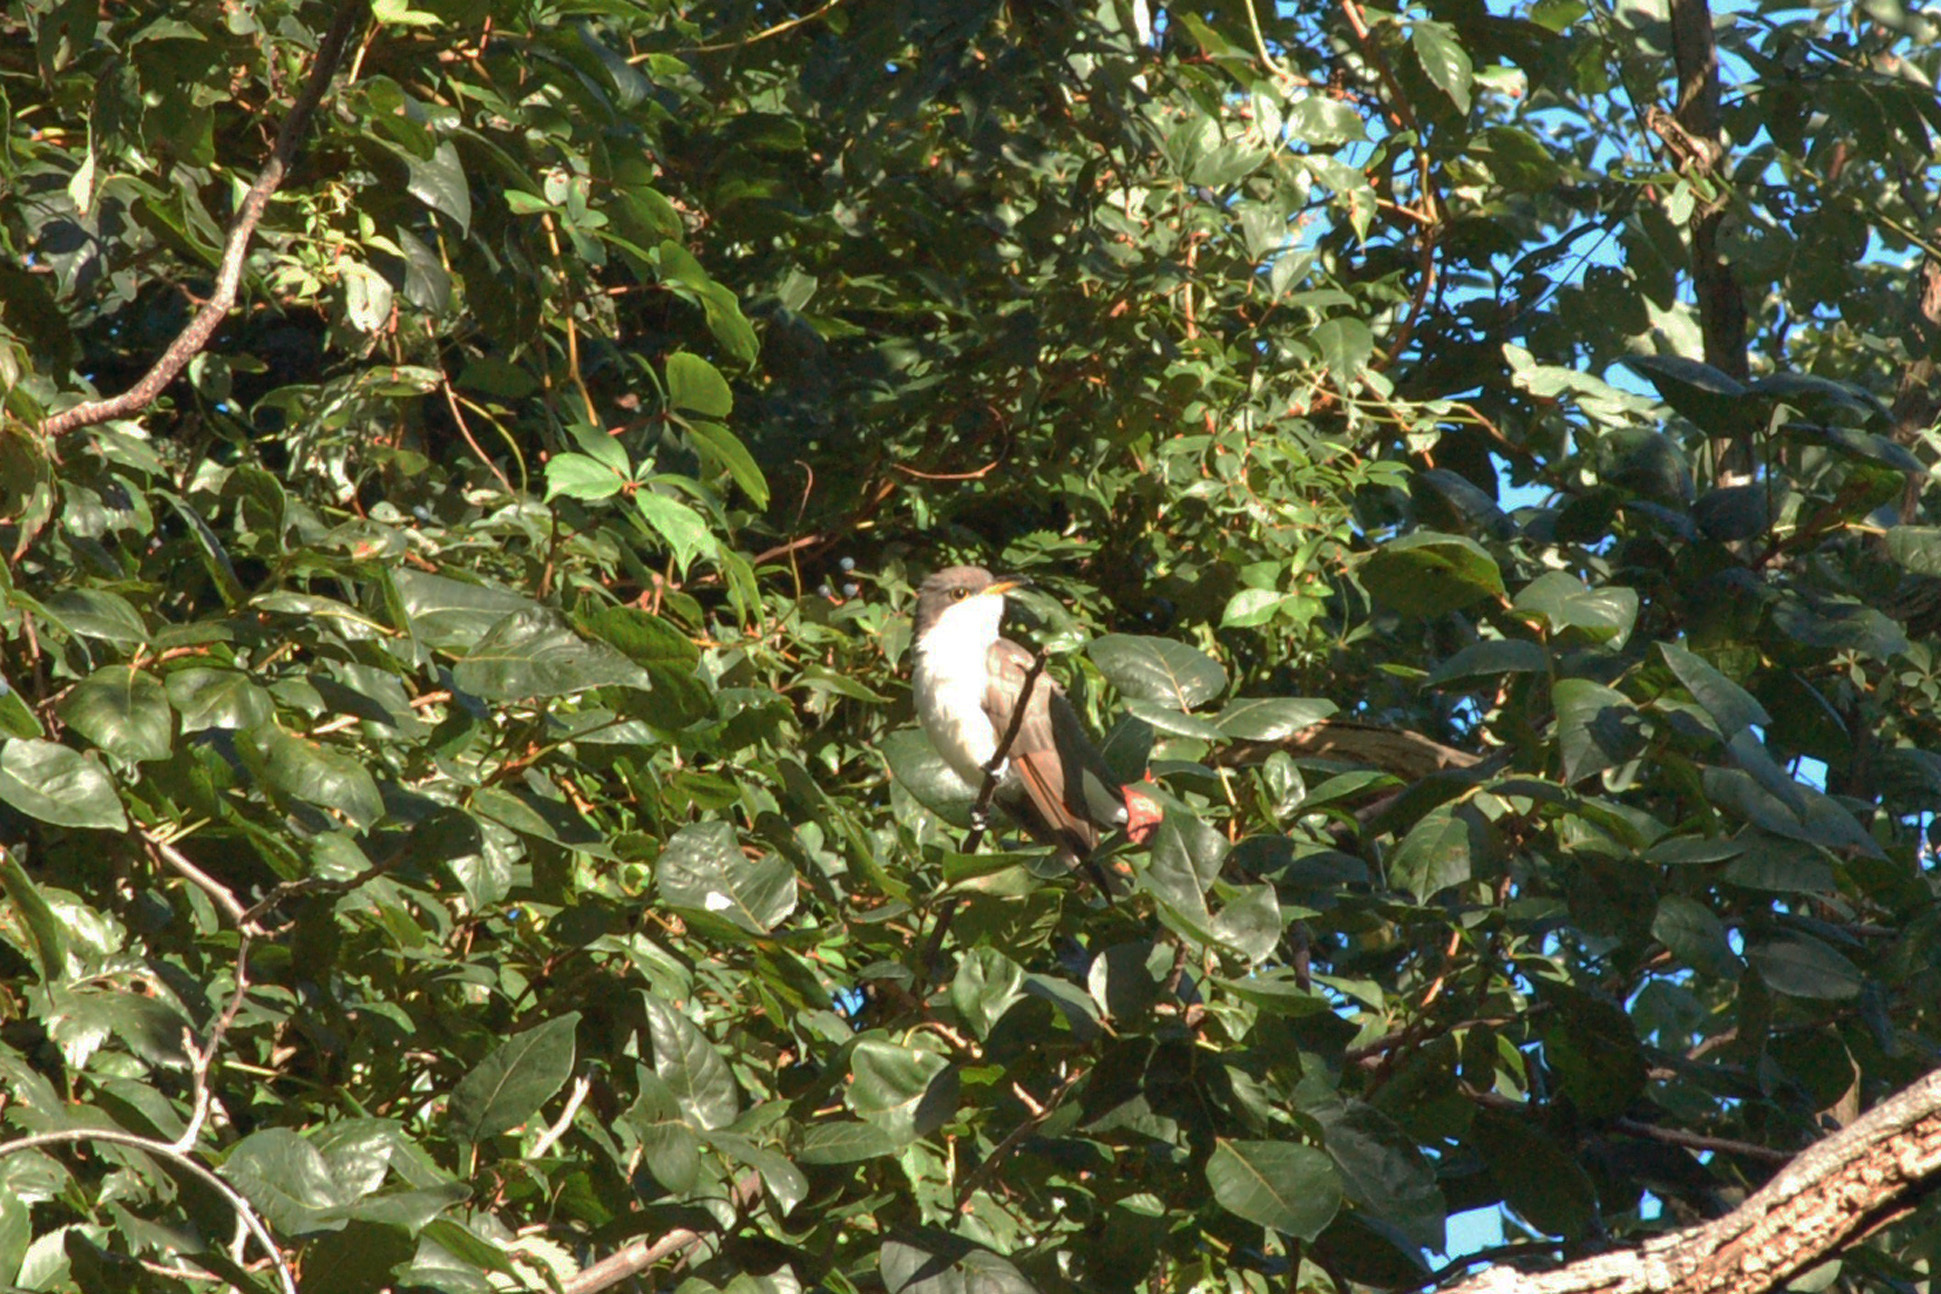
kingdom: Animalia
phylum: Chordata
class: Aves
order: Cuculiformes
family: Cuculidae
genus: Coccyzus
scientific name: Coccyzus americanus
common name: Yellow-billed cuckoo
